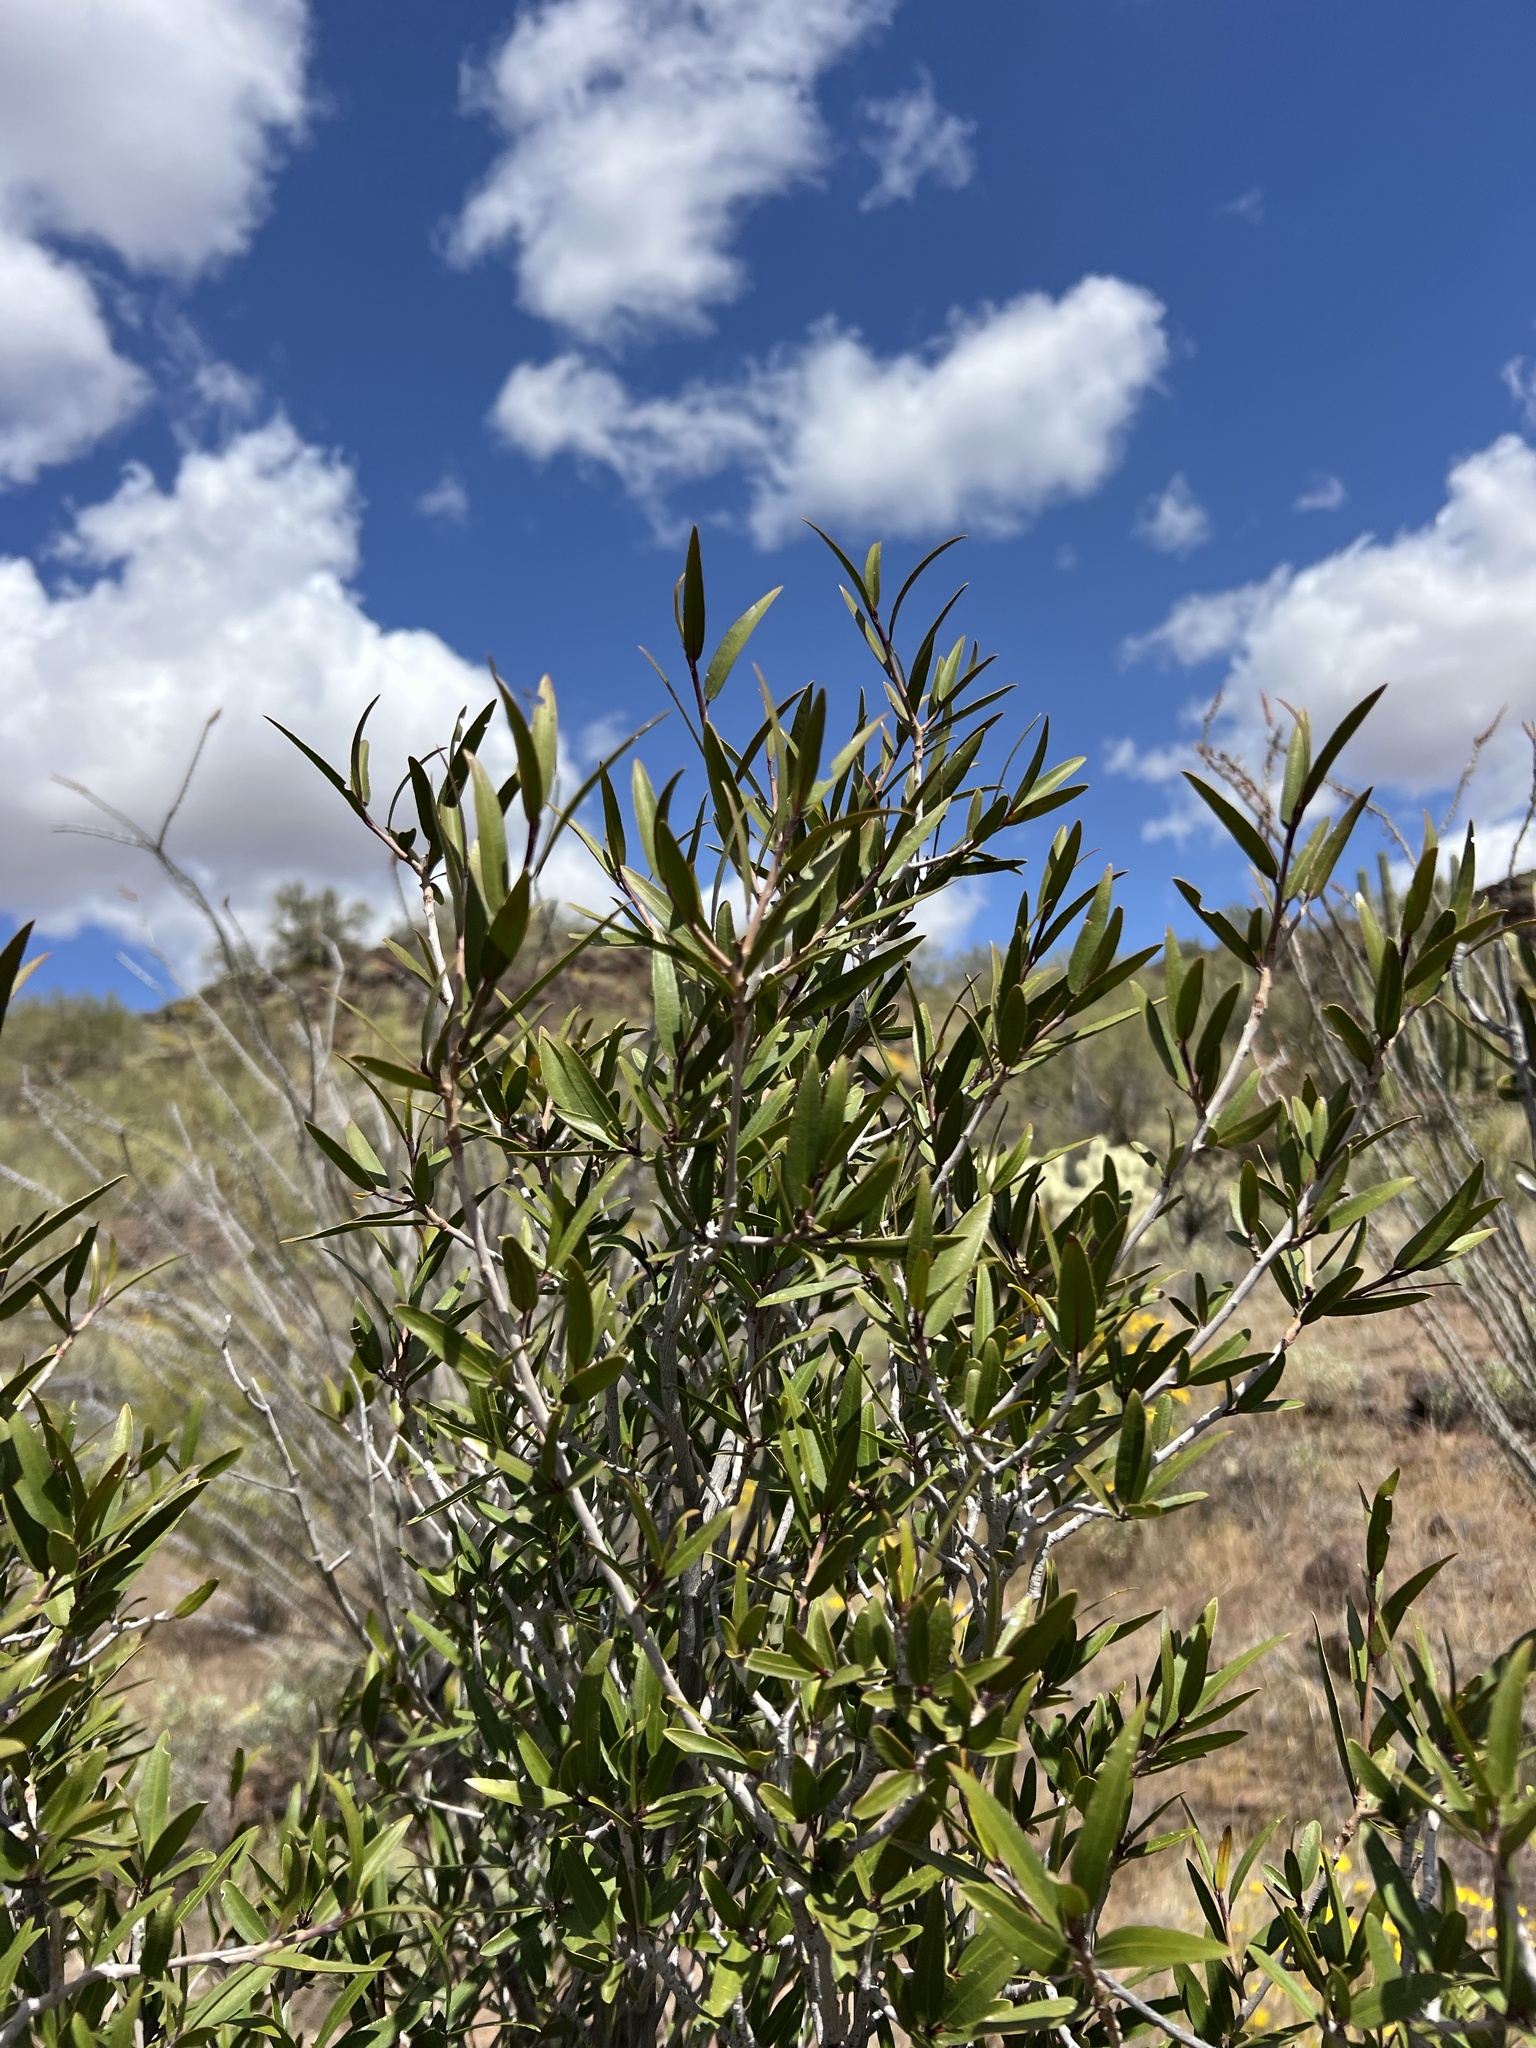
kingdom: Plantae
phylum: Tracheophyta
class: Magnoliopsida
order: Malpighiales
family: Euphorbiaceae
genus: Pleradenophora
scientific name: Pleradenophora bilocularis
